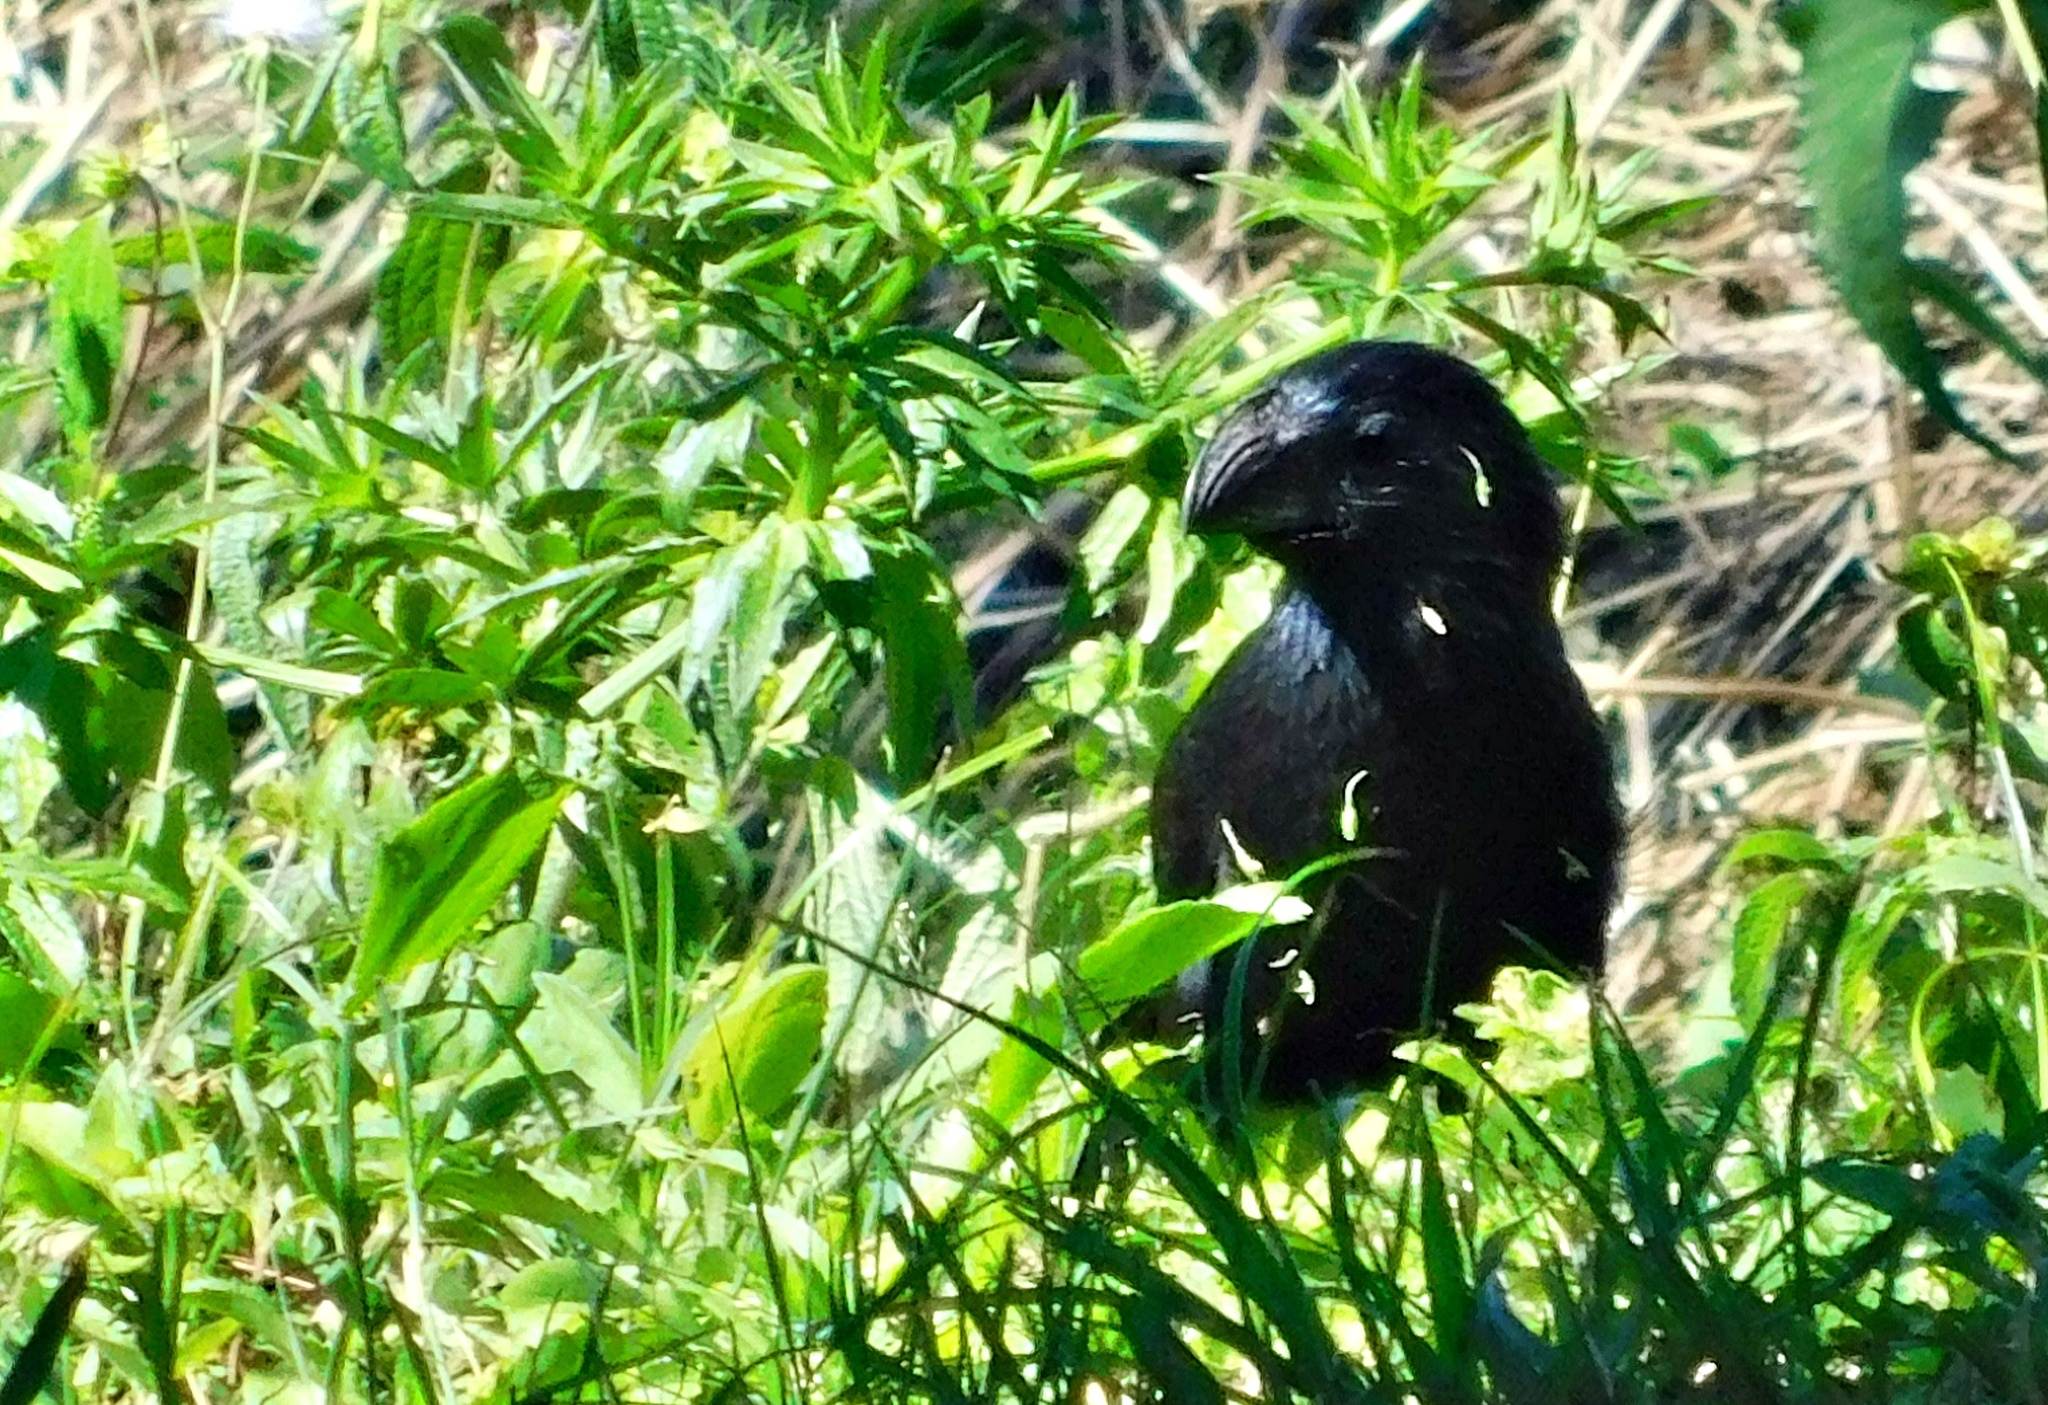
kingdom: Animalia
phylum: Chordata
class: Aves
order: Cuculiformes
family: Cuculidae
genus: Crotophaga
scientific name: Crotophaga sulcirostris
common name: Groove-billed ani
